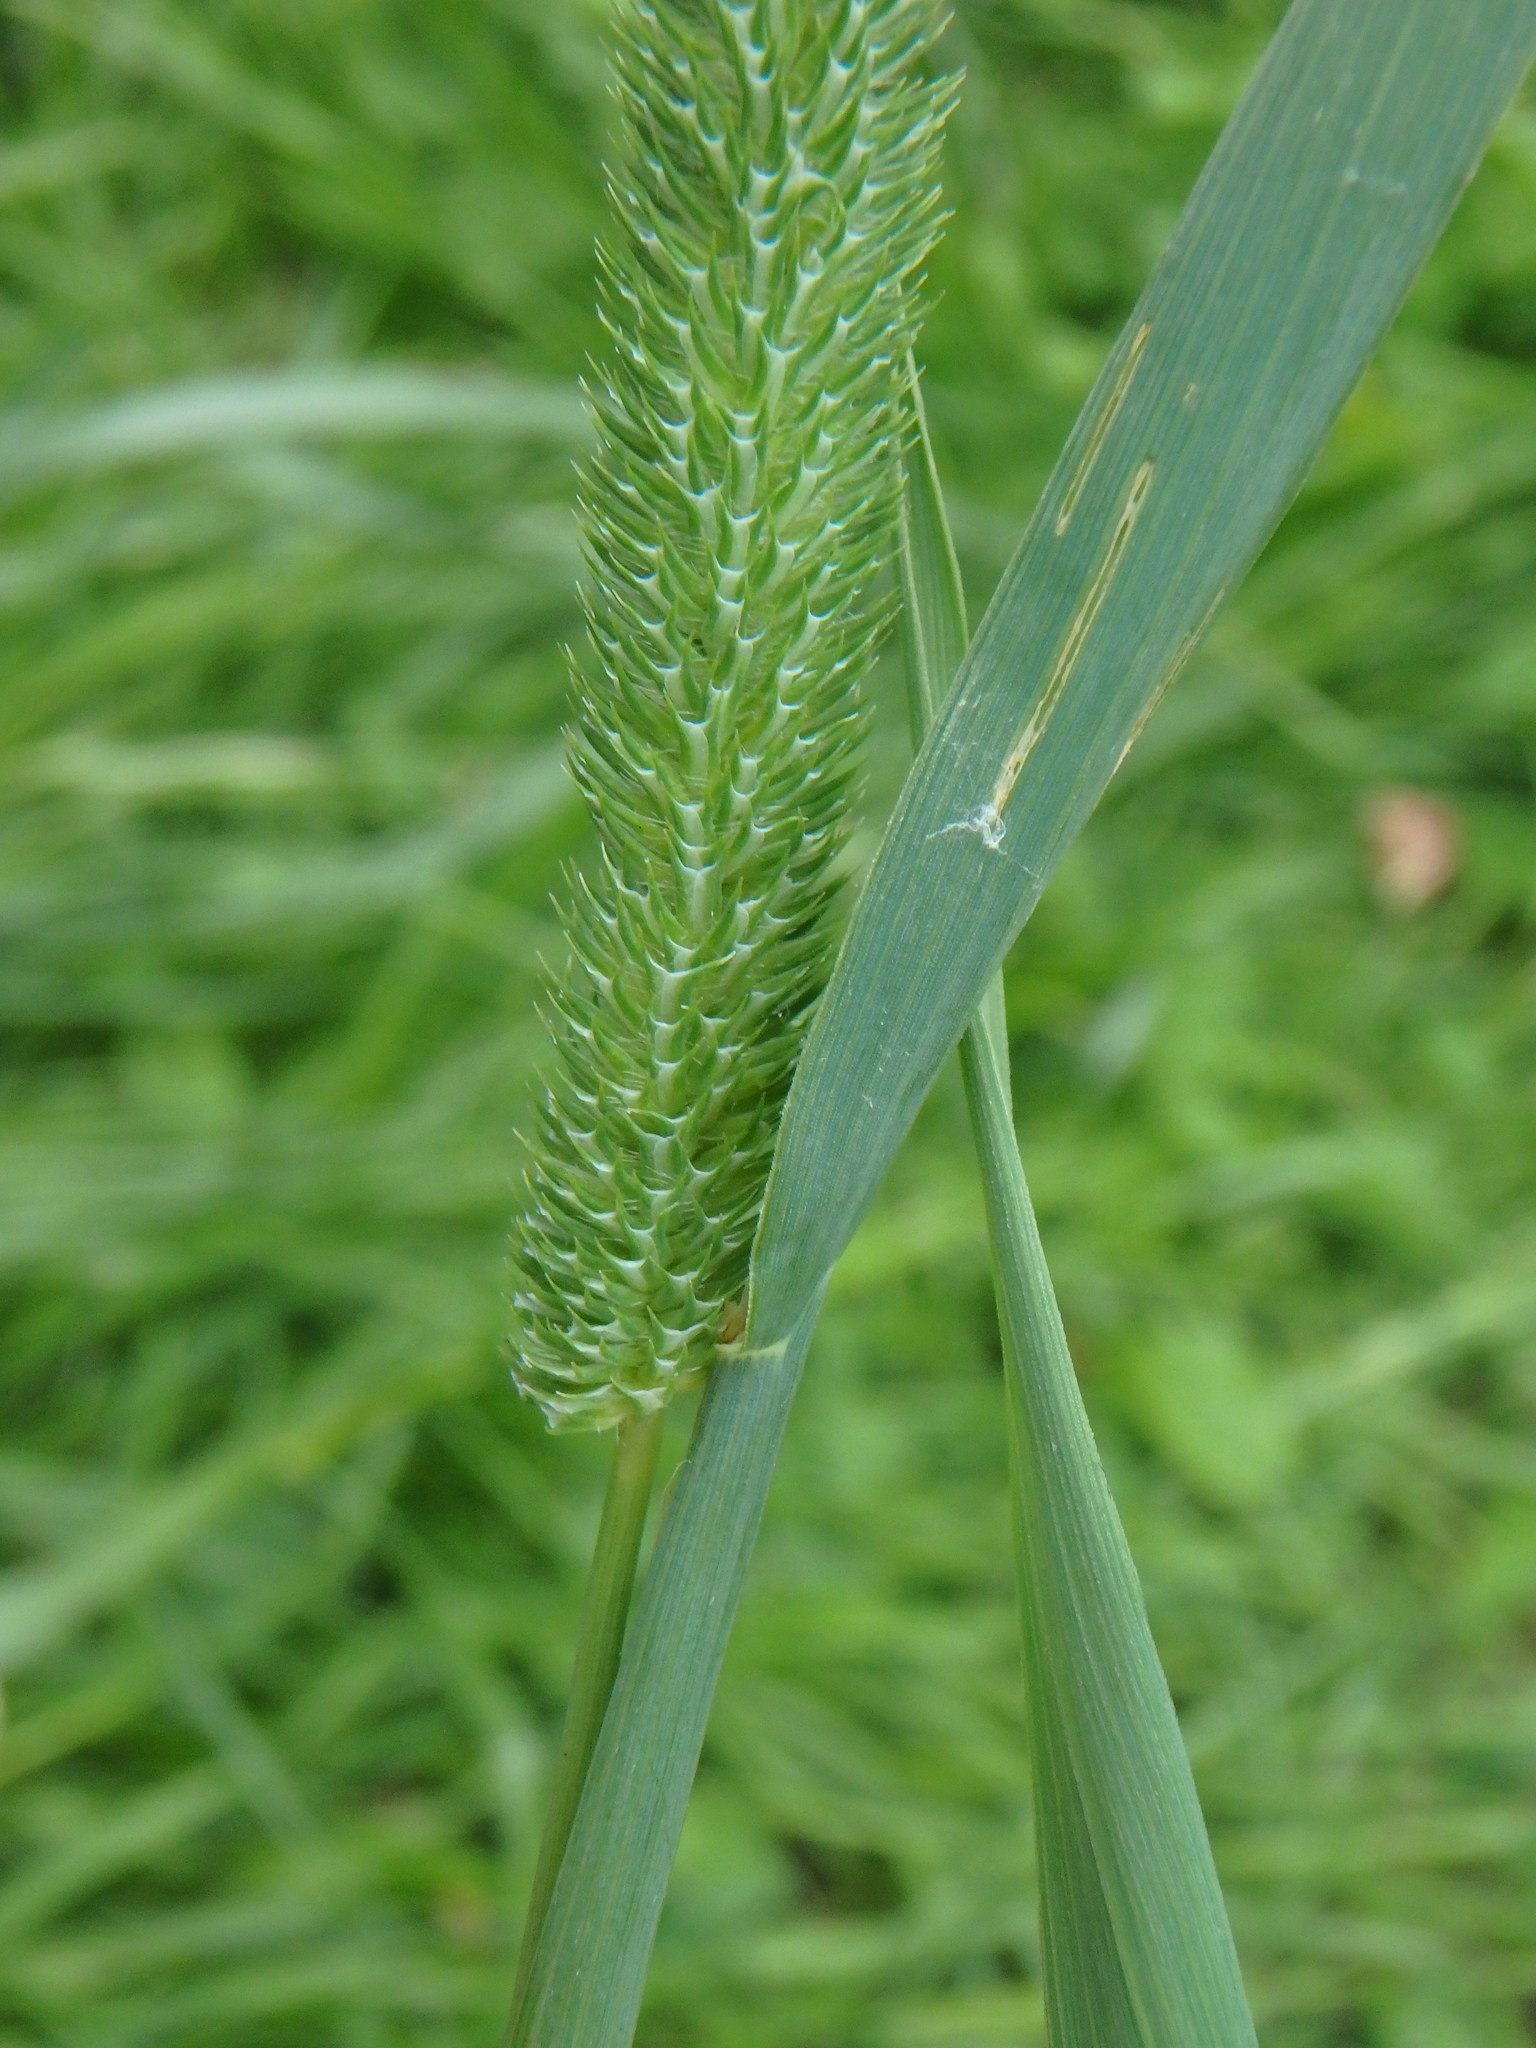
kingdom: Plantae
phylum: Tracheophyta
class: Liliopsida
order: Poales
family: Poaceae
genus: Phleum
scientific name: Phleum pratense
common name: Timothy grass
